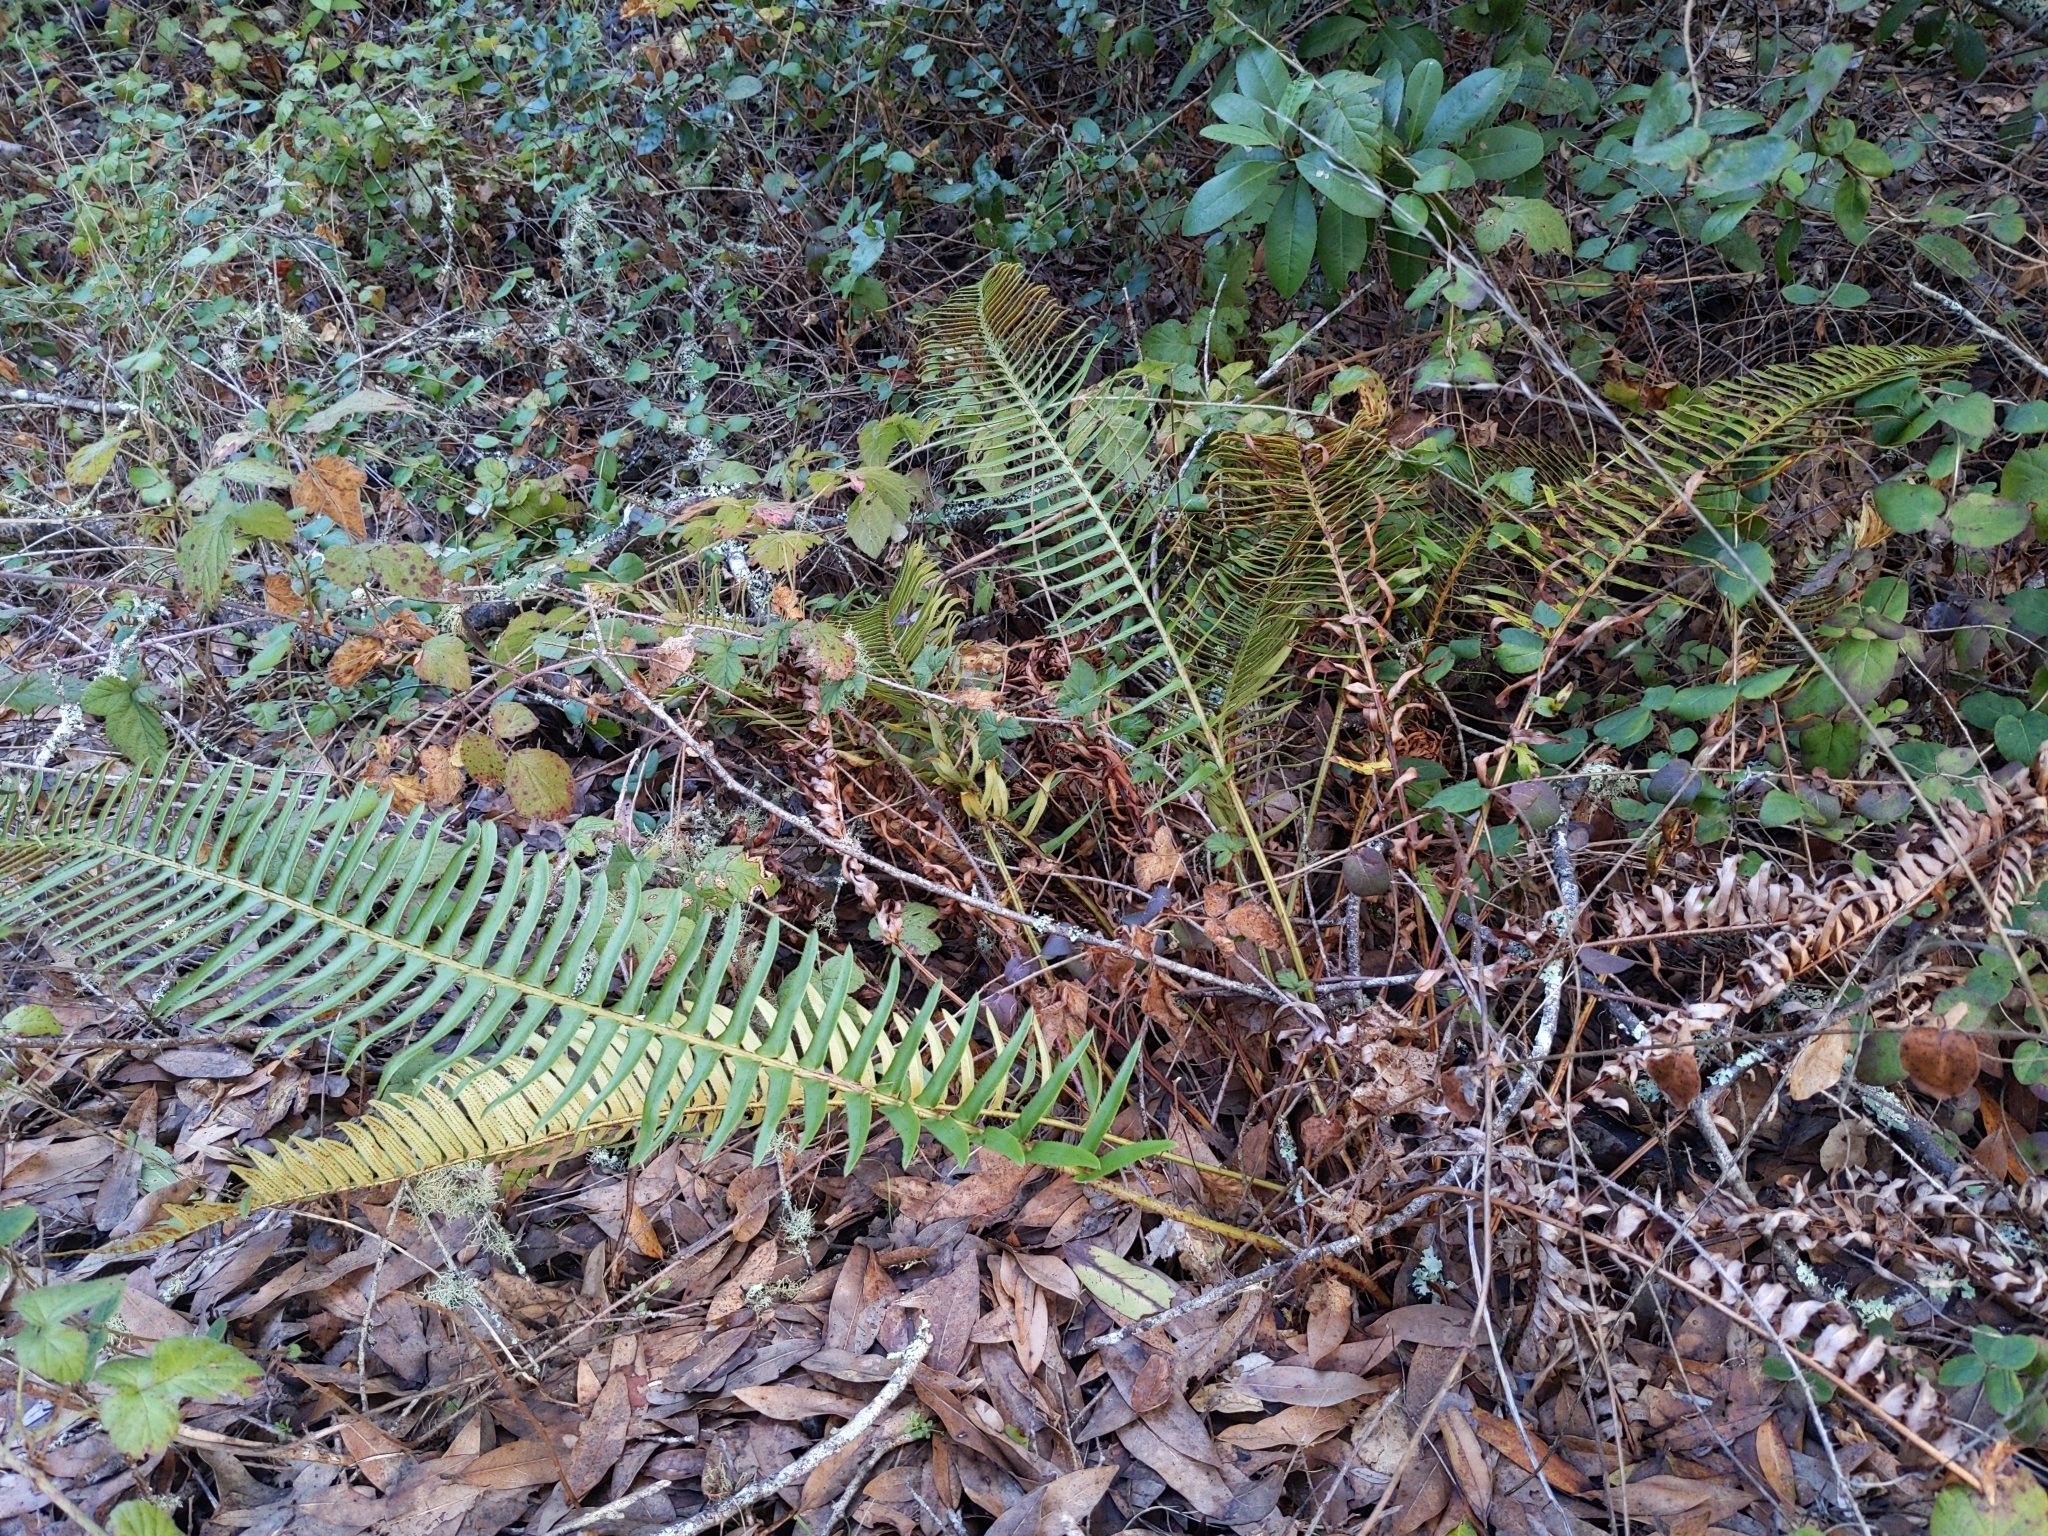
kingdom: Plantae
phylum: Tracheophyta
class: Polypodiopsida
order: Polypodiales
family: Dryopteridaceae
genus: Polystichum
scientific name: Polystichum munitum
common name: Western sword-fern
